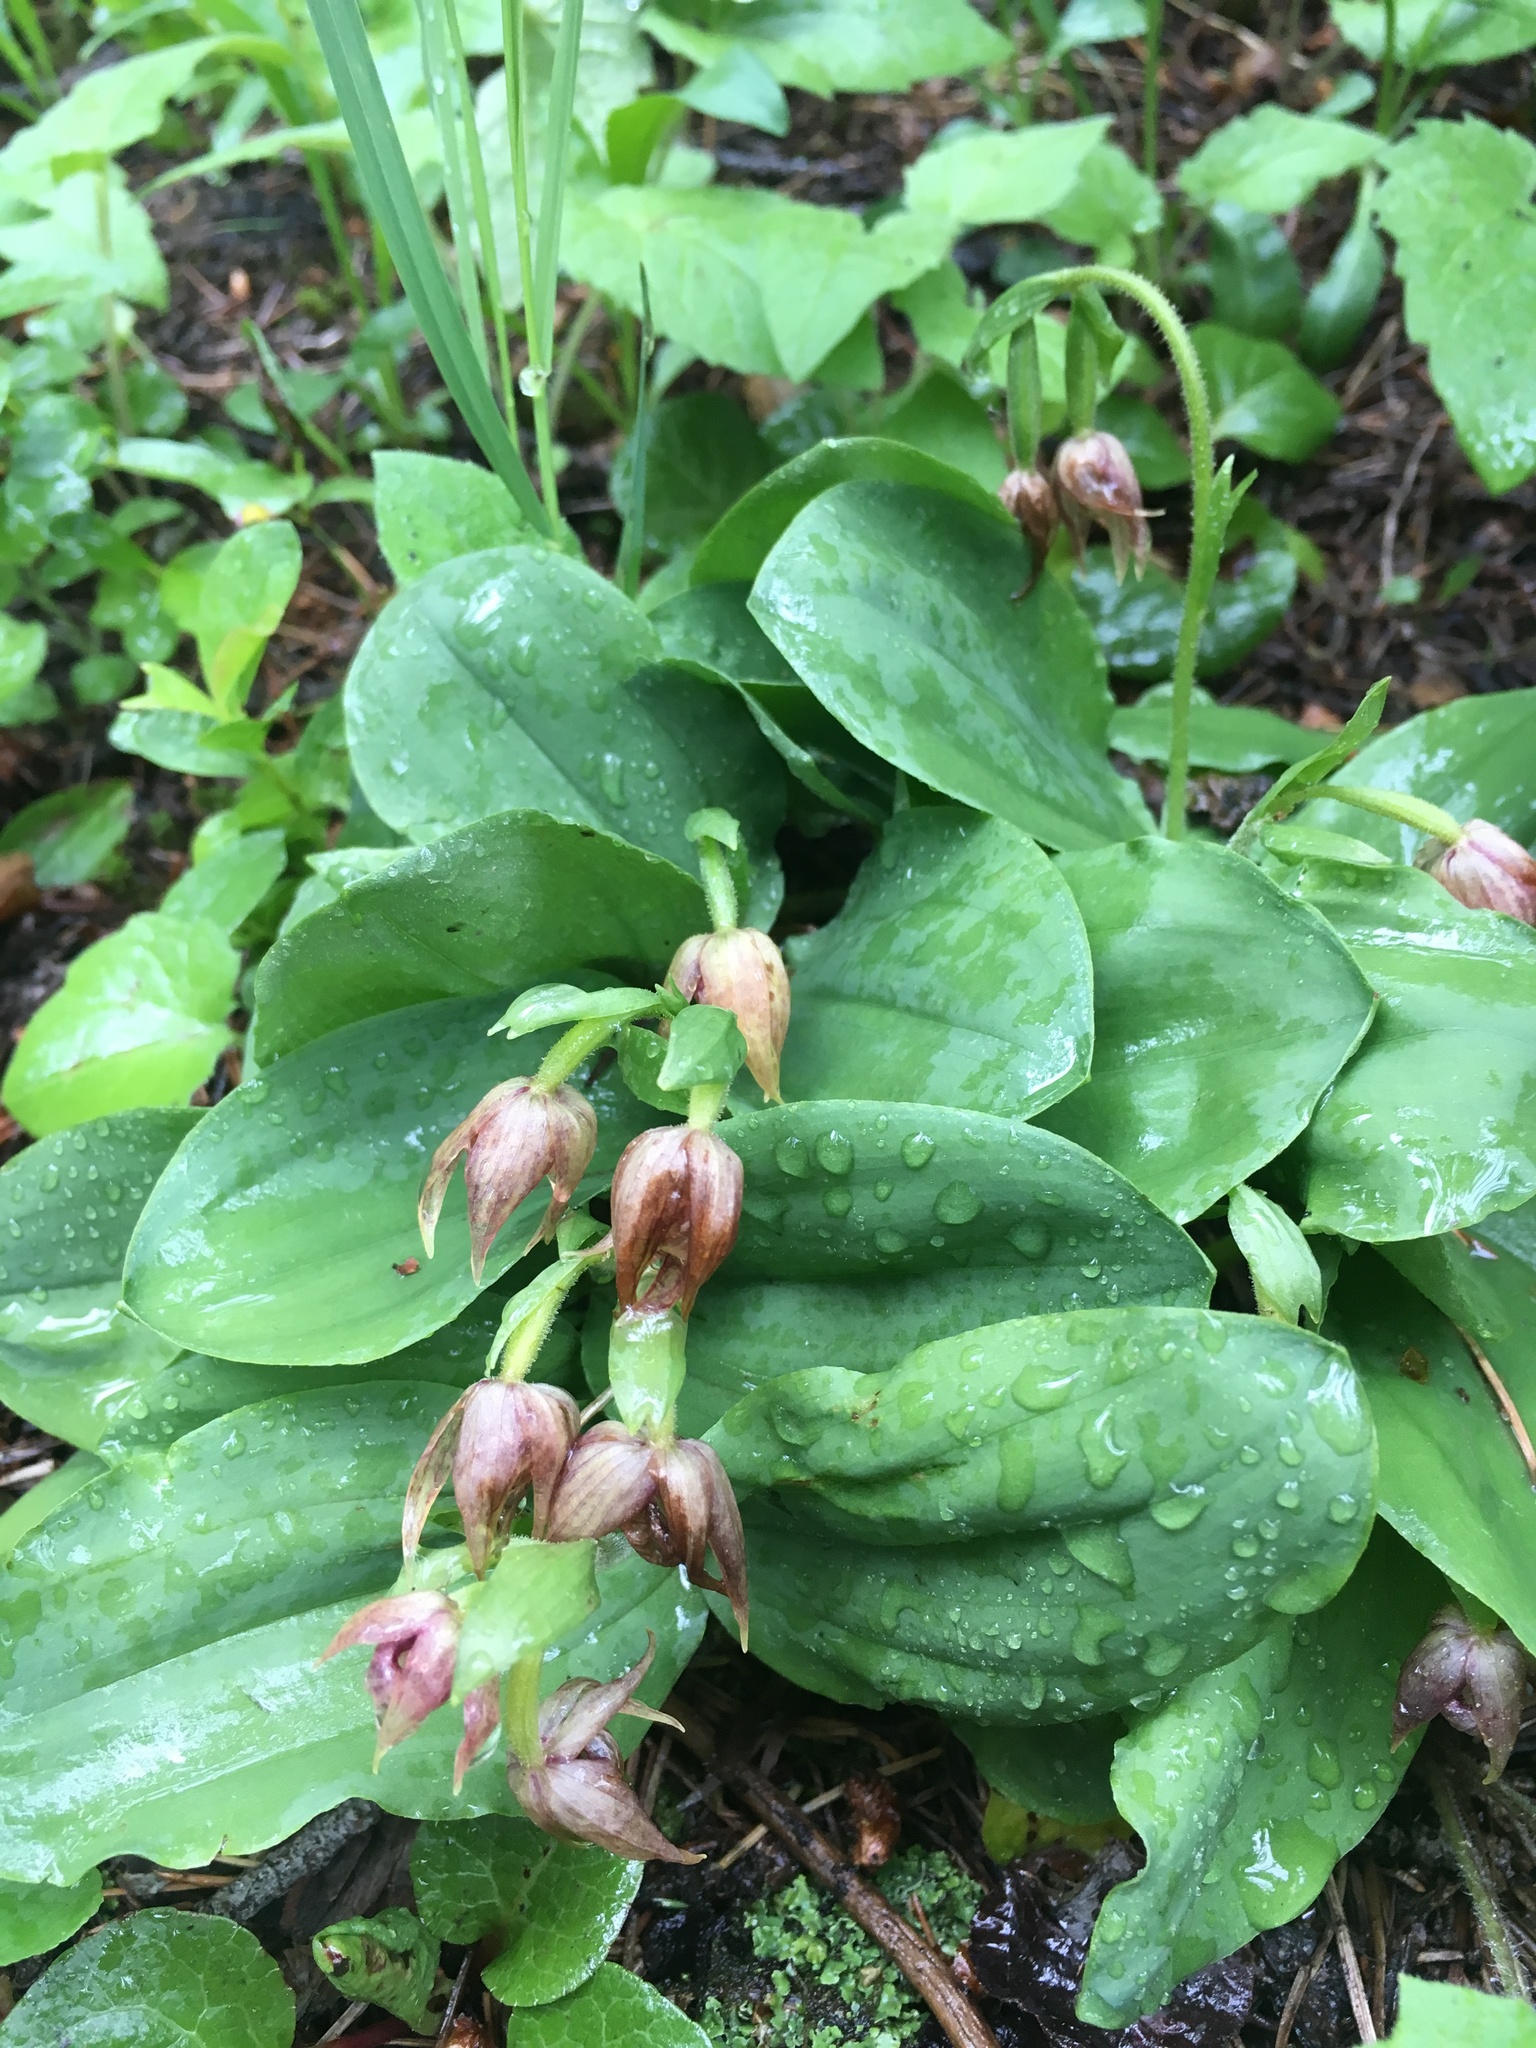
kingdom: Plantae
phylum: Tracheophyta
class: Liliopsida
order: Asparagales
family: Orchidaceae
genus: Cypripedium
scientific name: Cypripedium fasciculatum
